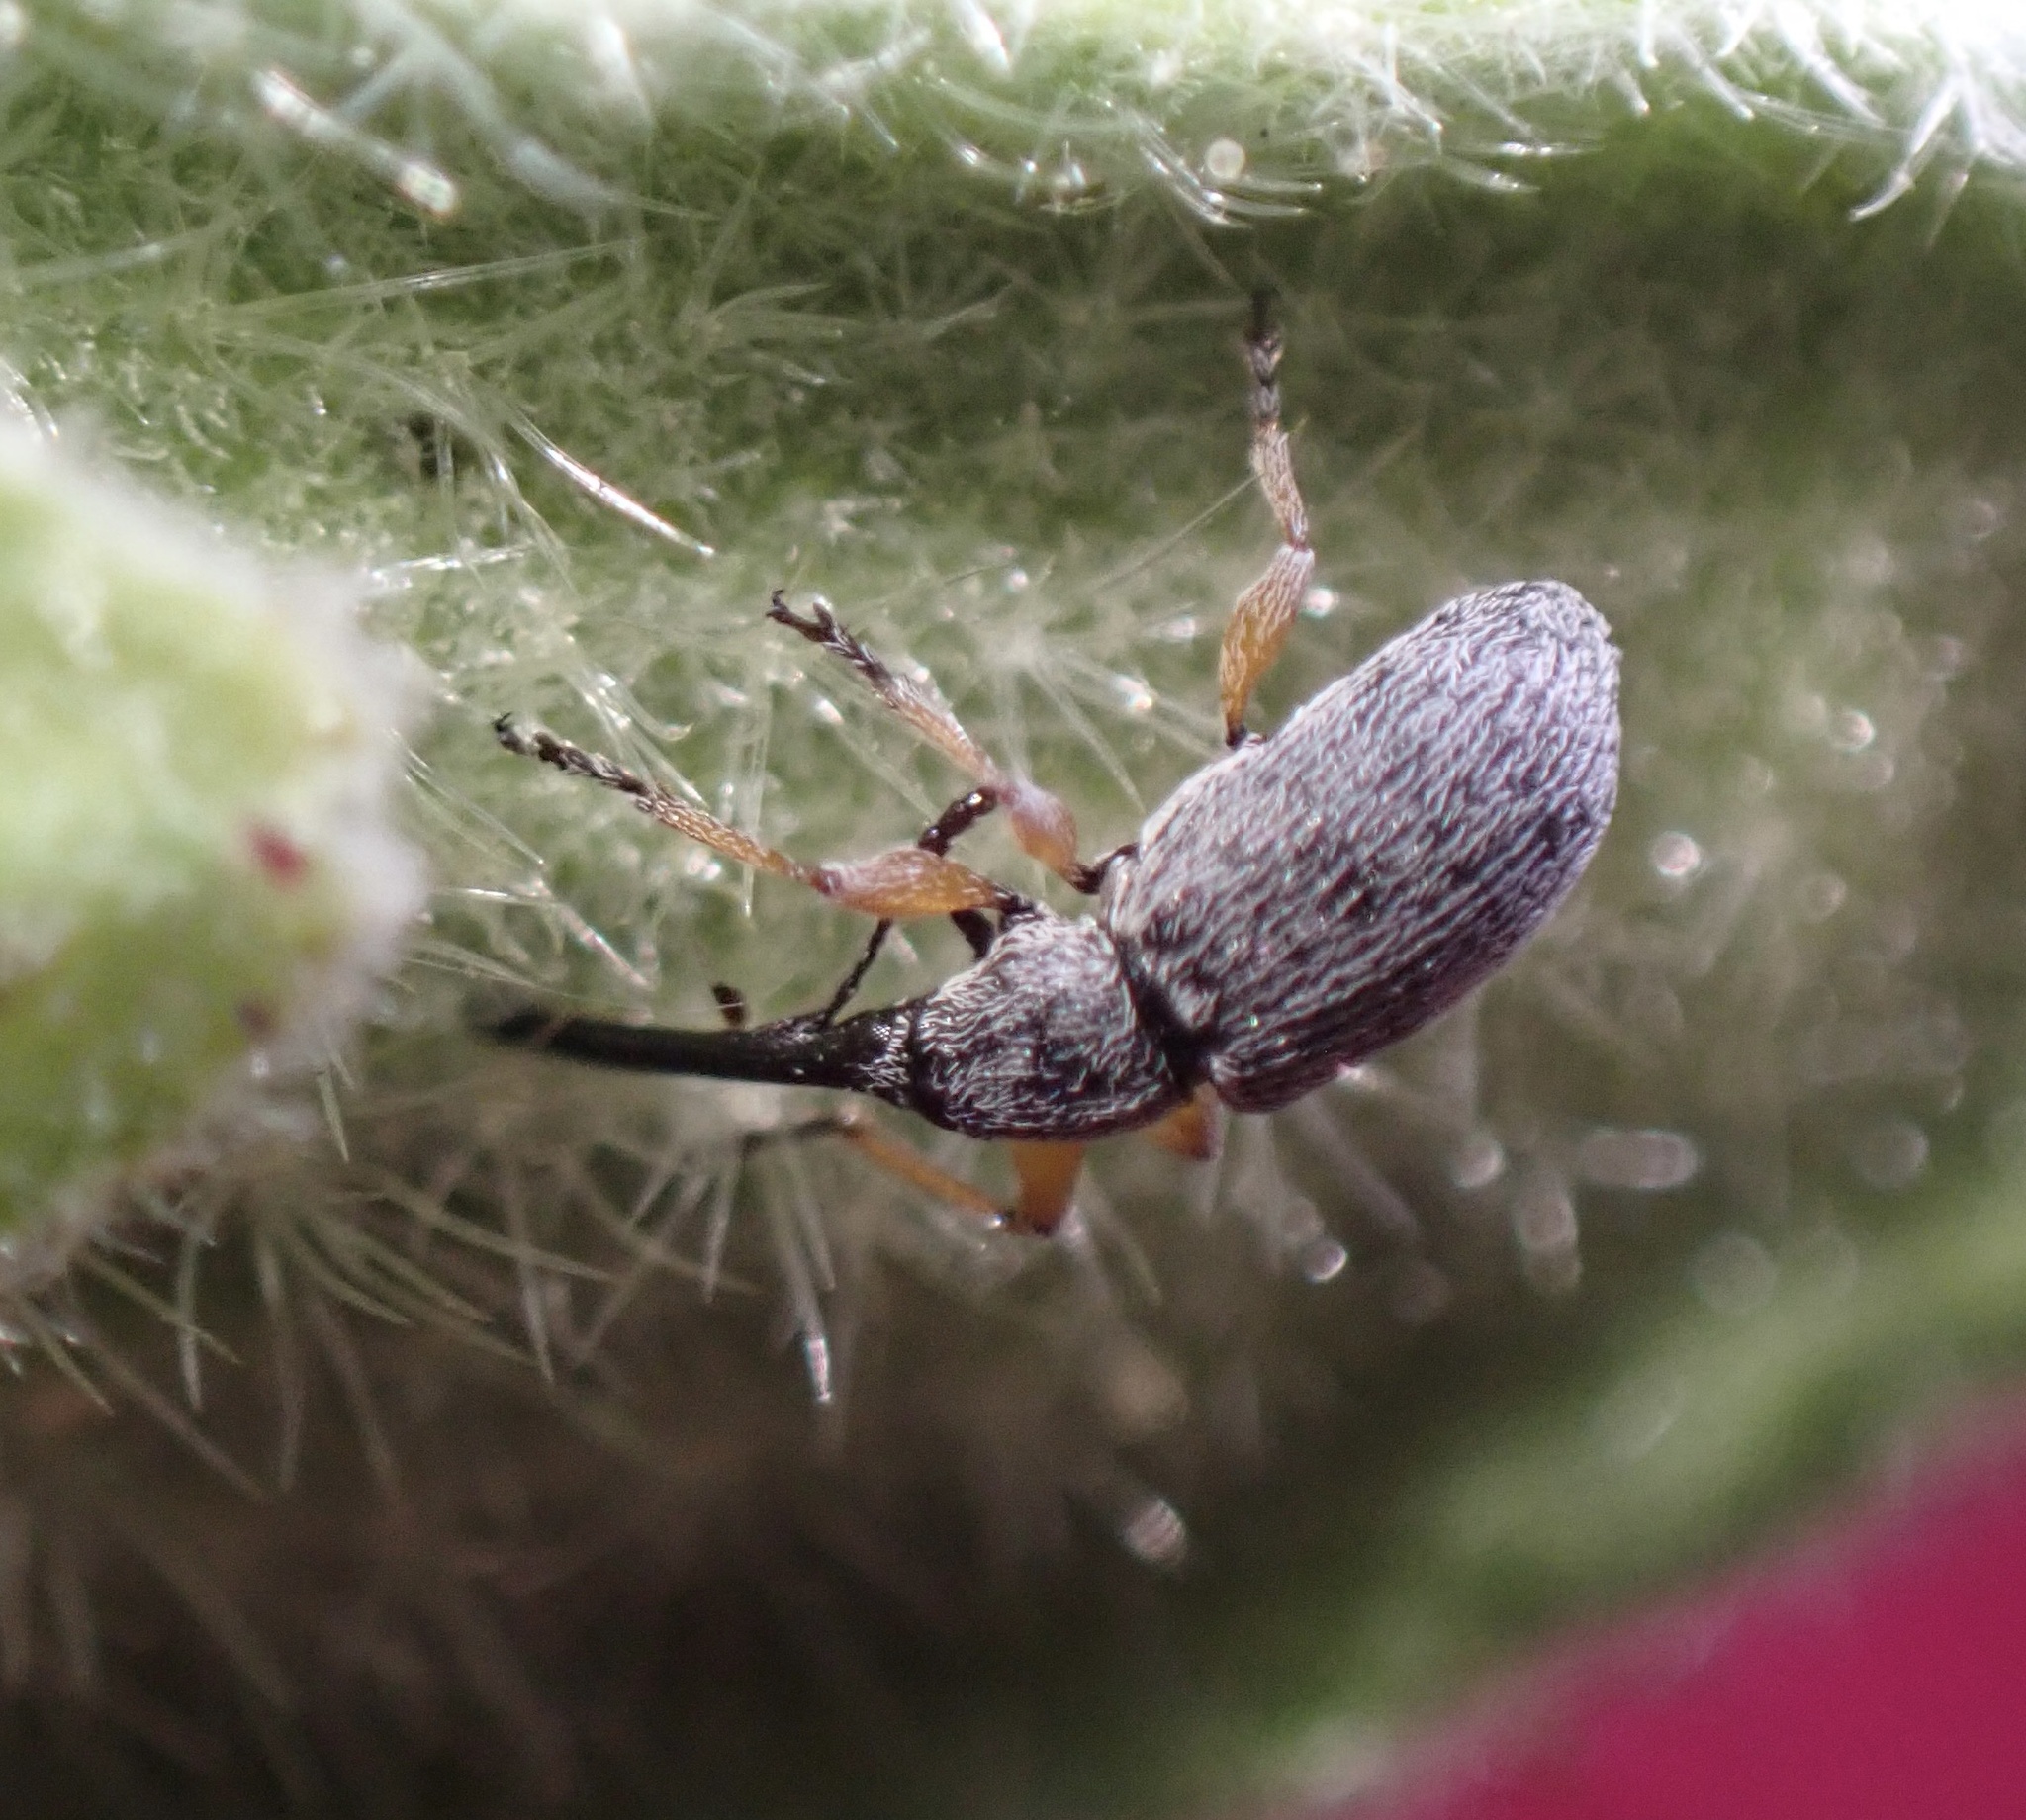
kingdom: Animalia
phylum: Arthropoda
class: Insecta
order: Coleoptera
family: Brentidae
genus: Rhopalapion
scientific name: Rhopalapion longirostre
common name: Hollyhock weevil
